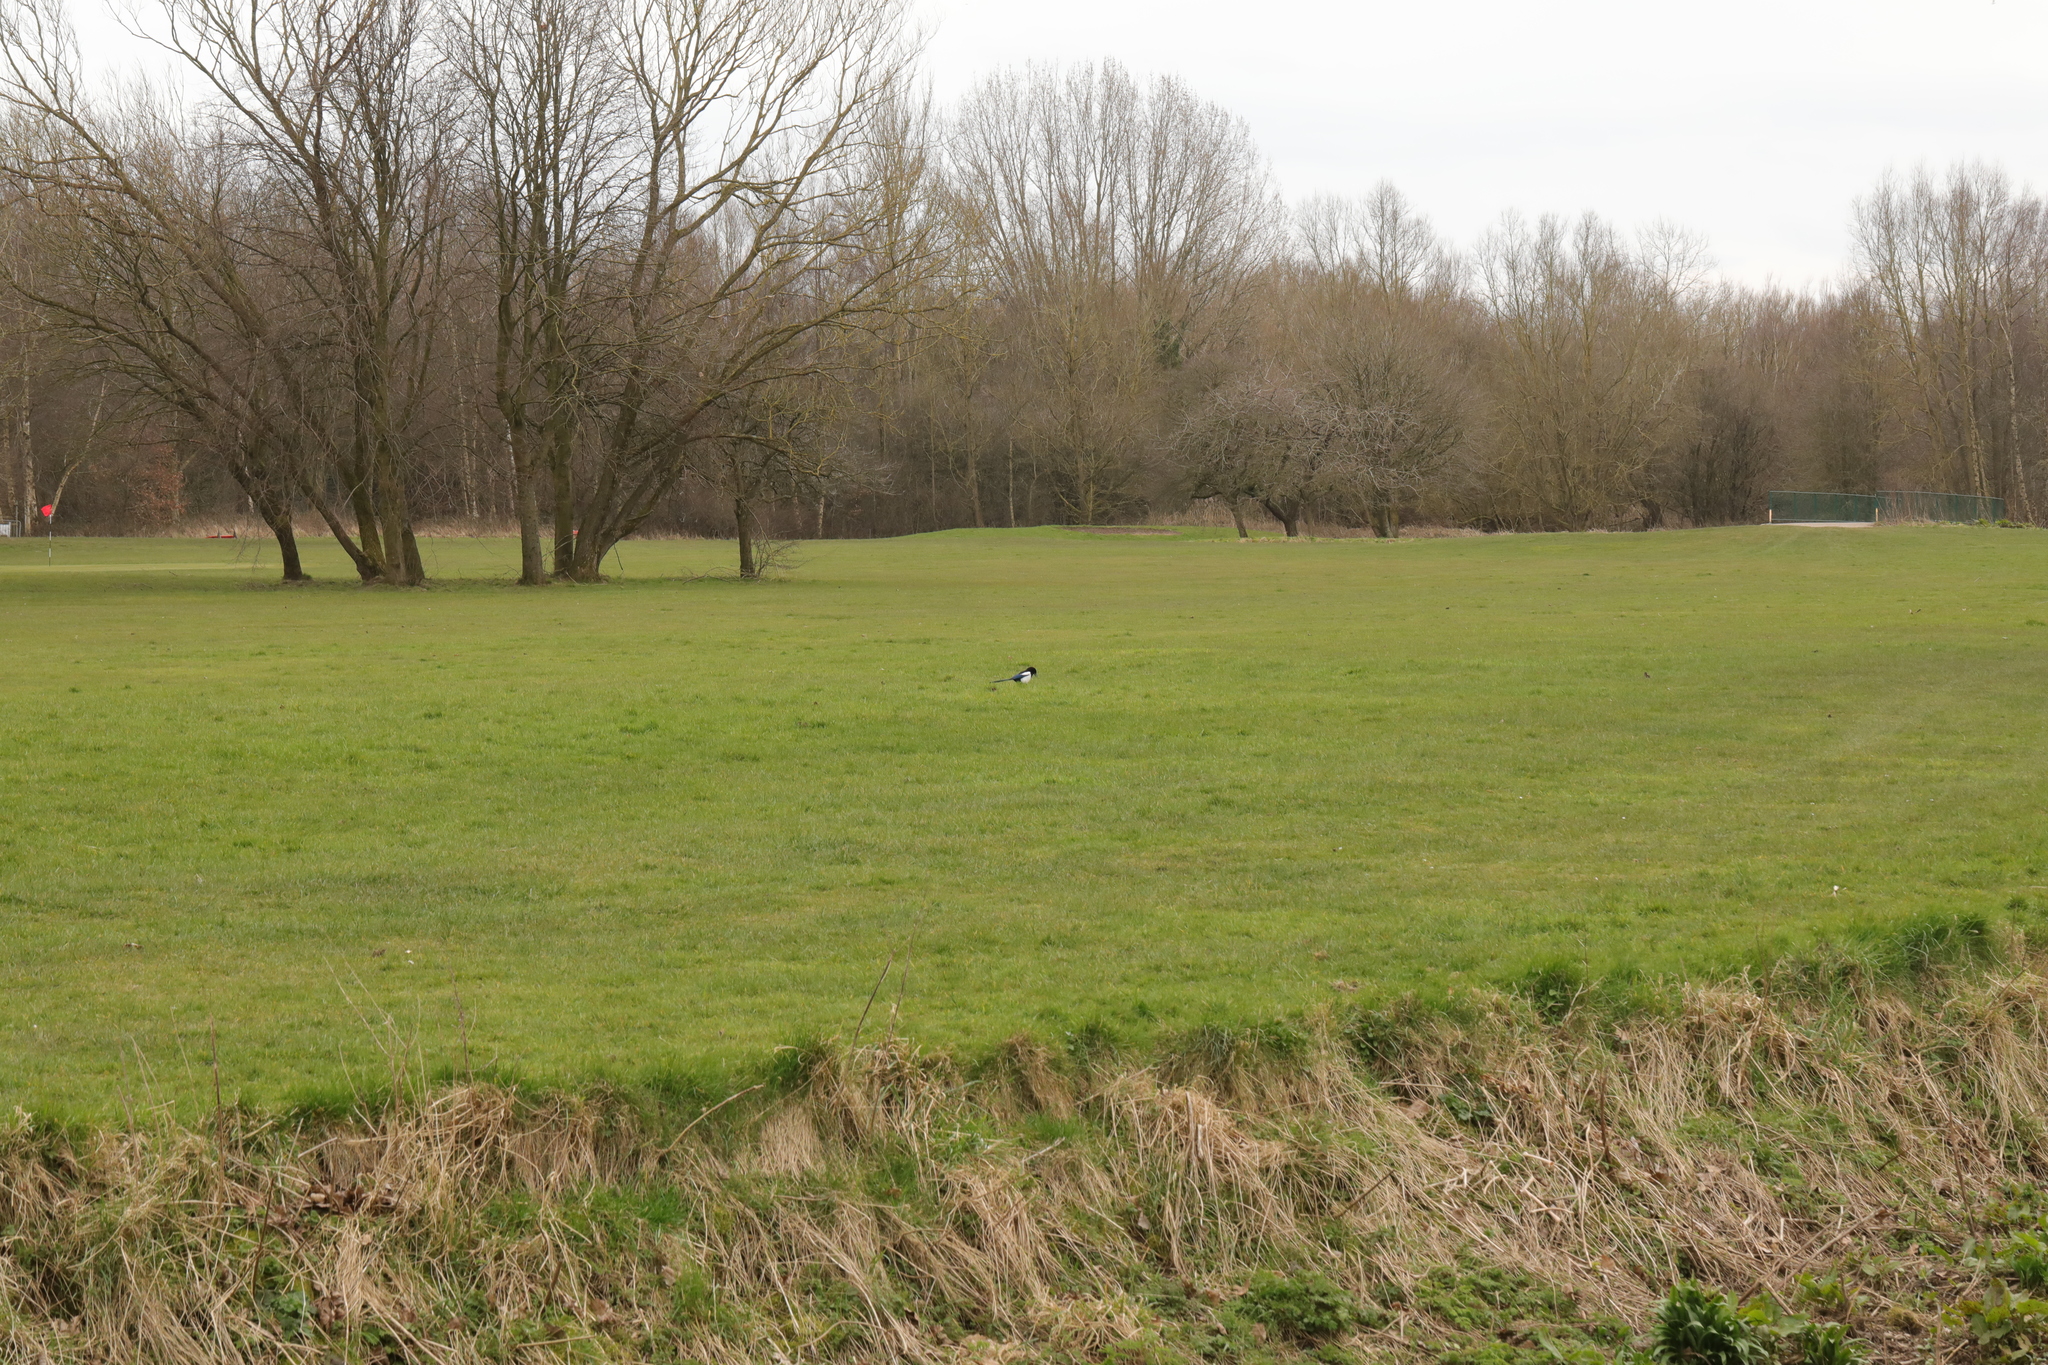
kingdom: Animalia
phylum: Chordata
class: Aves
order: Passeriformes
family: Corvidae
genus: Pica
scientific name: Pica pica
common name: Eurasian magpie
